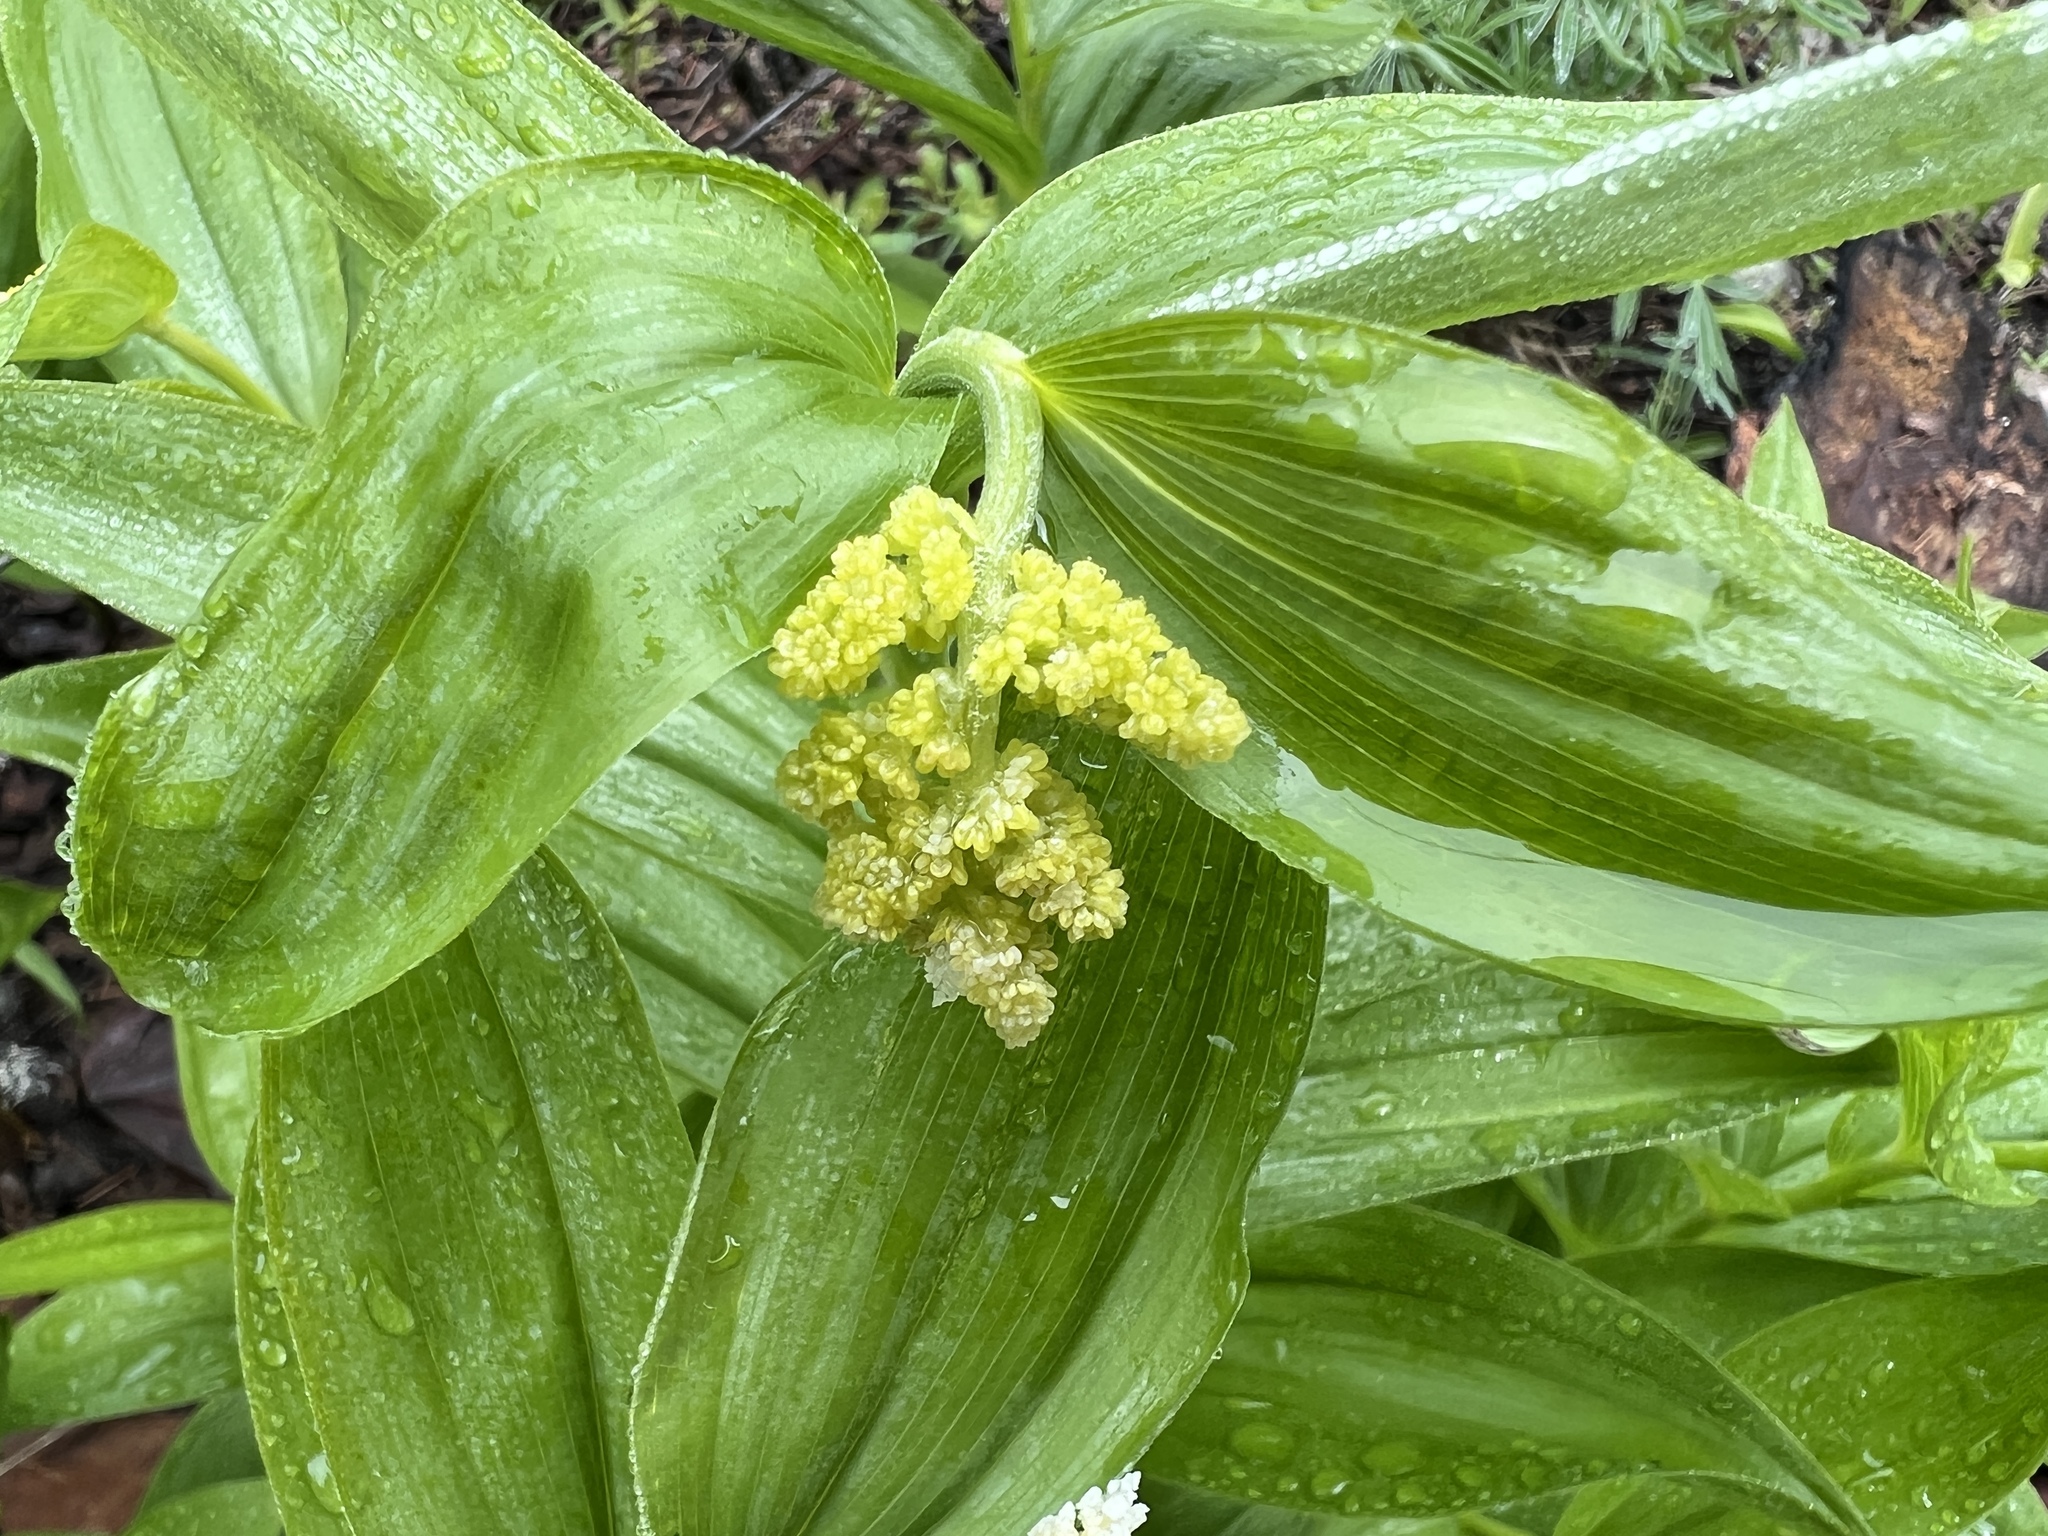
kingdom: Plantae
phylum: Tracheophyta
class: Liliopsida
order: Asparagales
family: Asparagaceae
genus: Maianthemum
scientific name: Maianthemum racemosum
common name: False spikenard
